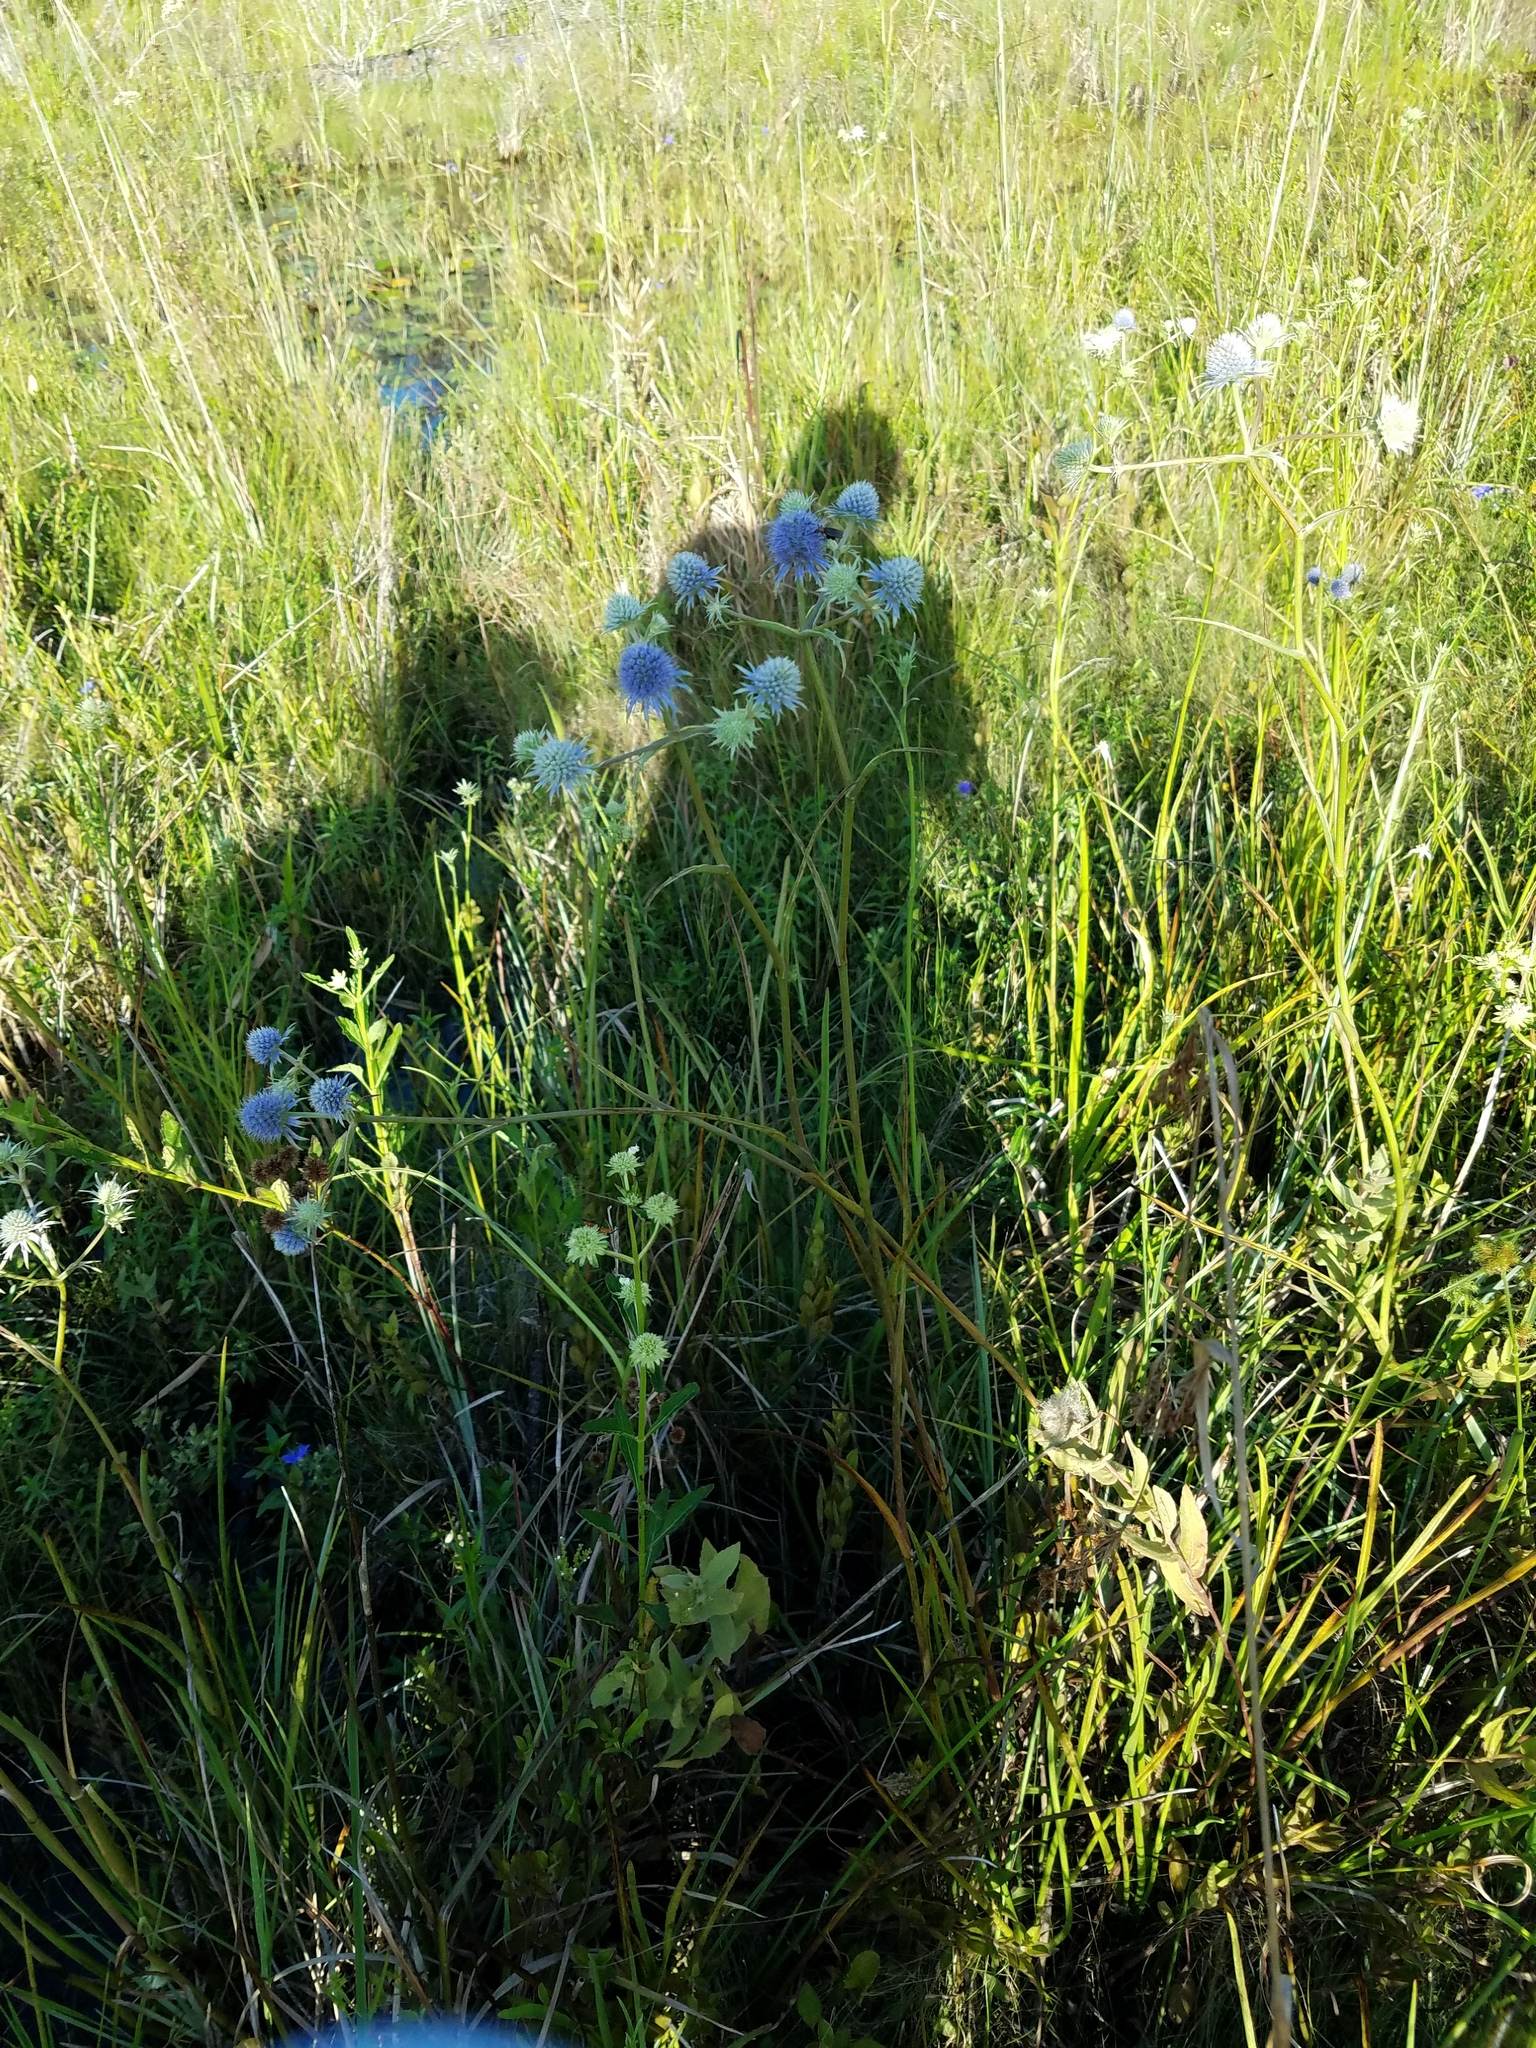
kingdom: Plantae
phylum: Tracheophyta
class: Magnoliopsida
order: Apiales
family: Apiaceae
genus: Eryngium
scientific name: Eryngium aquaticum
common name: Water eryngo
